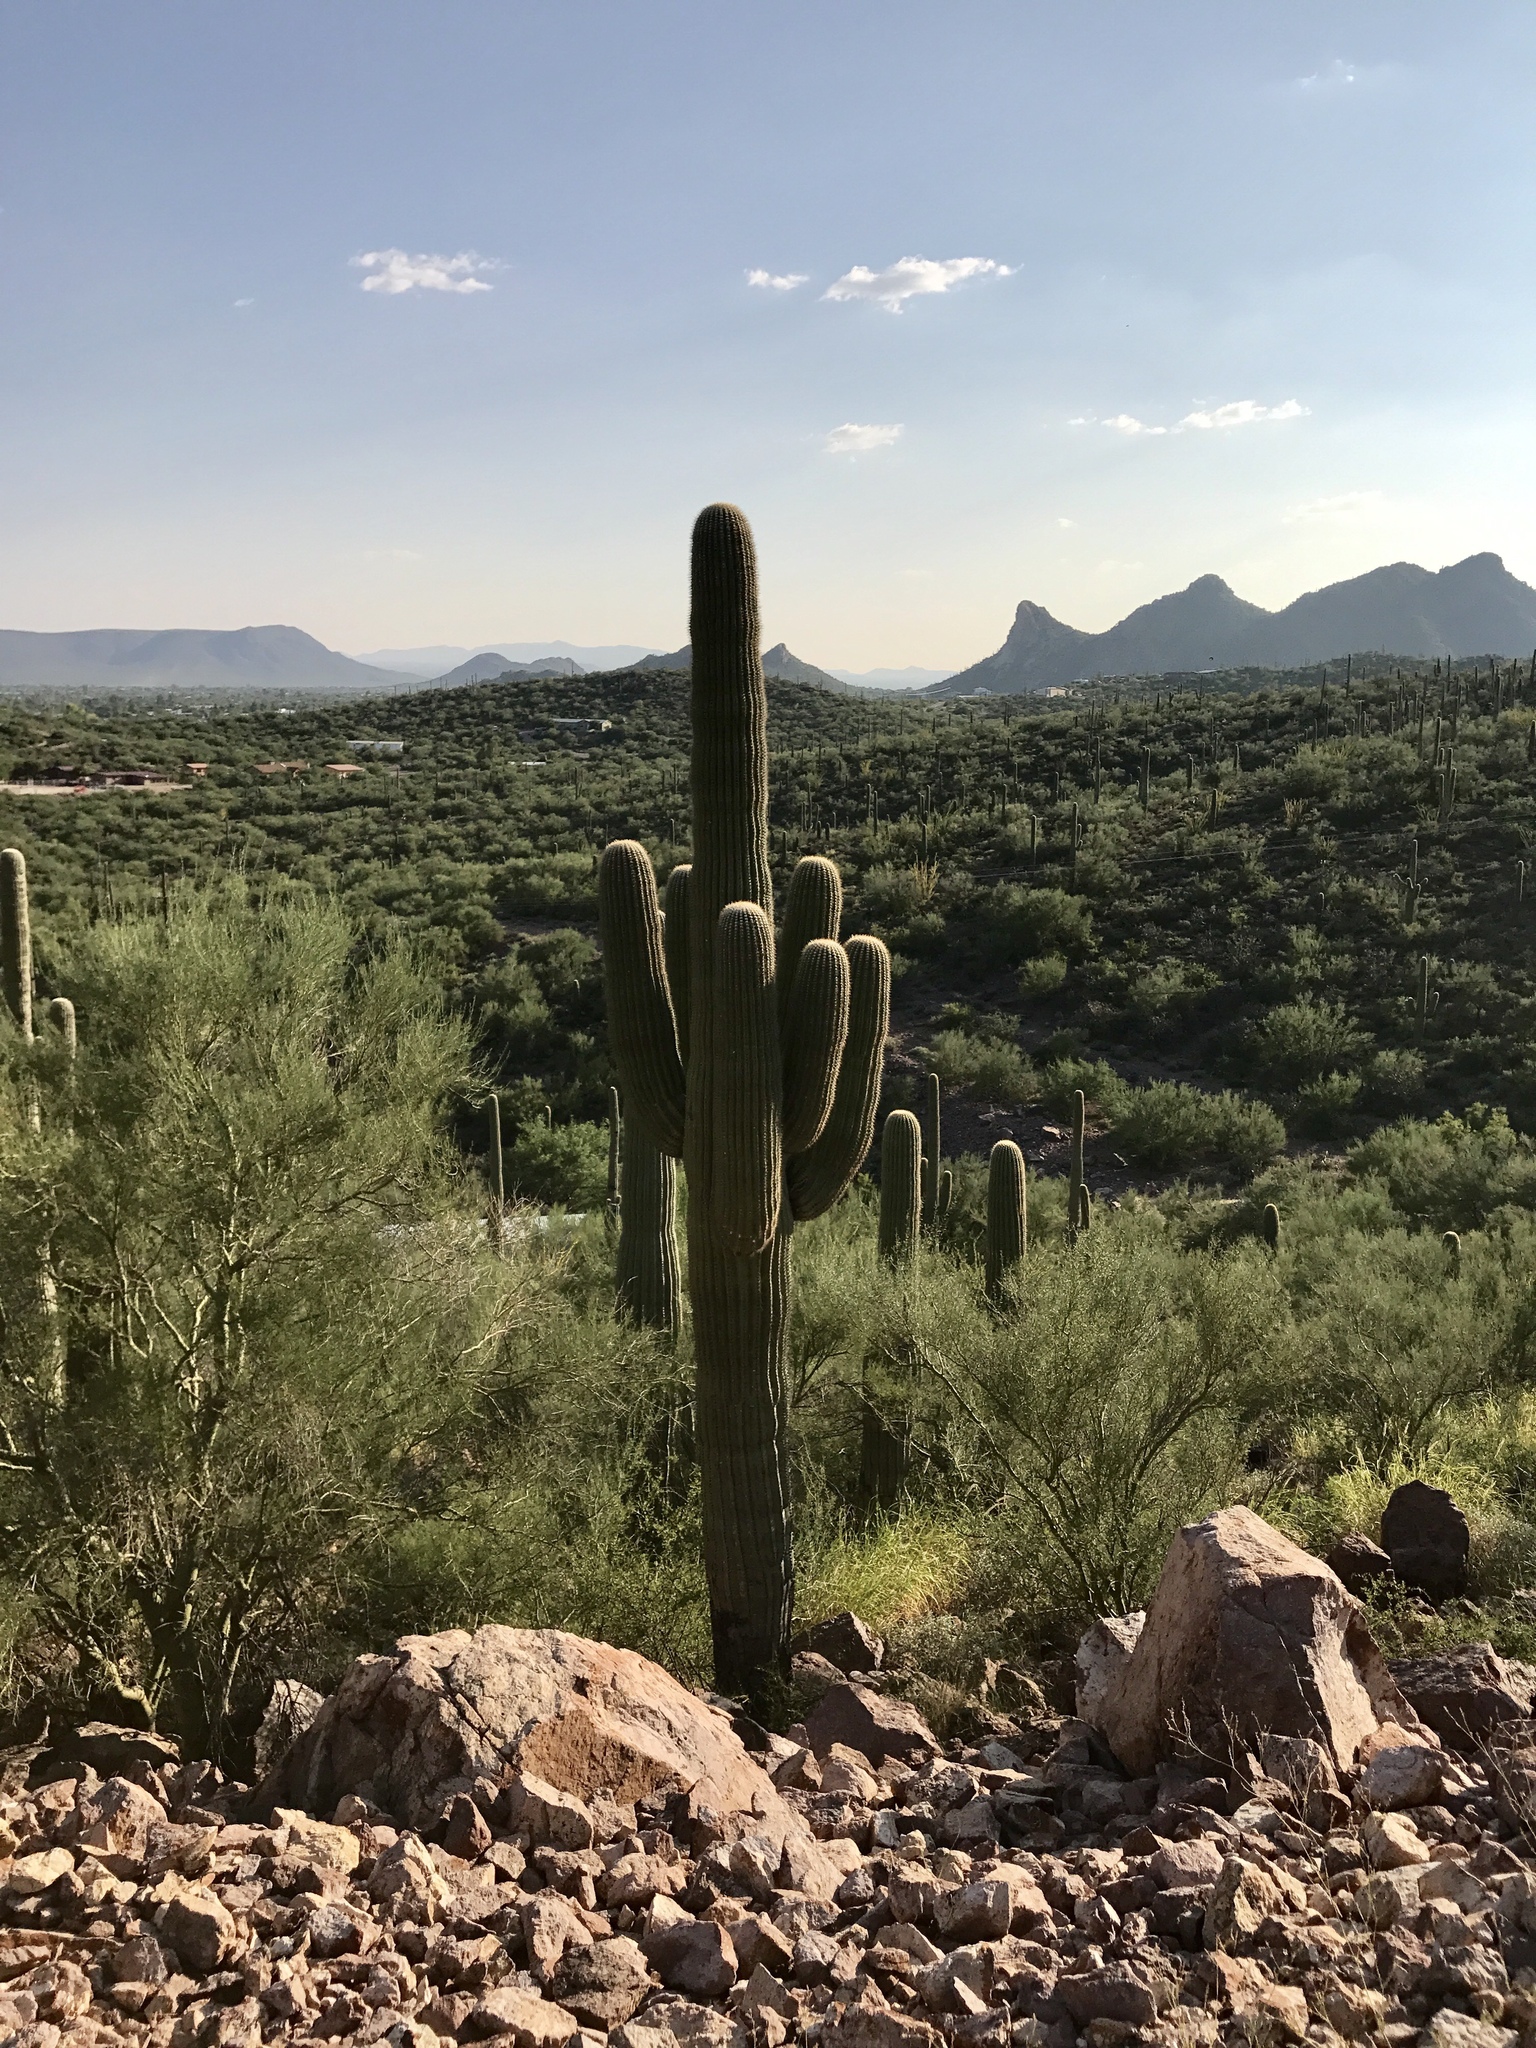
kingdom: Plantae
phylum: Tracheophyta
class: Magnoliopsida
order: Caryophyllales
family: Cactaceae
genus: Carnegiea
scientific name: Carnegiea gigantea
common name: Saguaro
